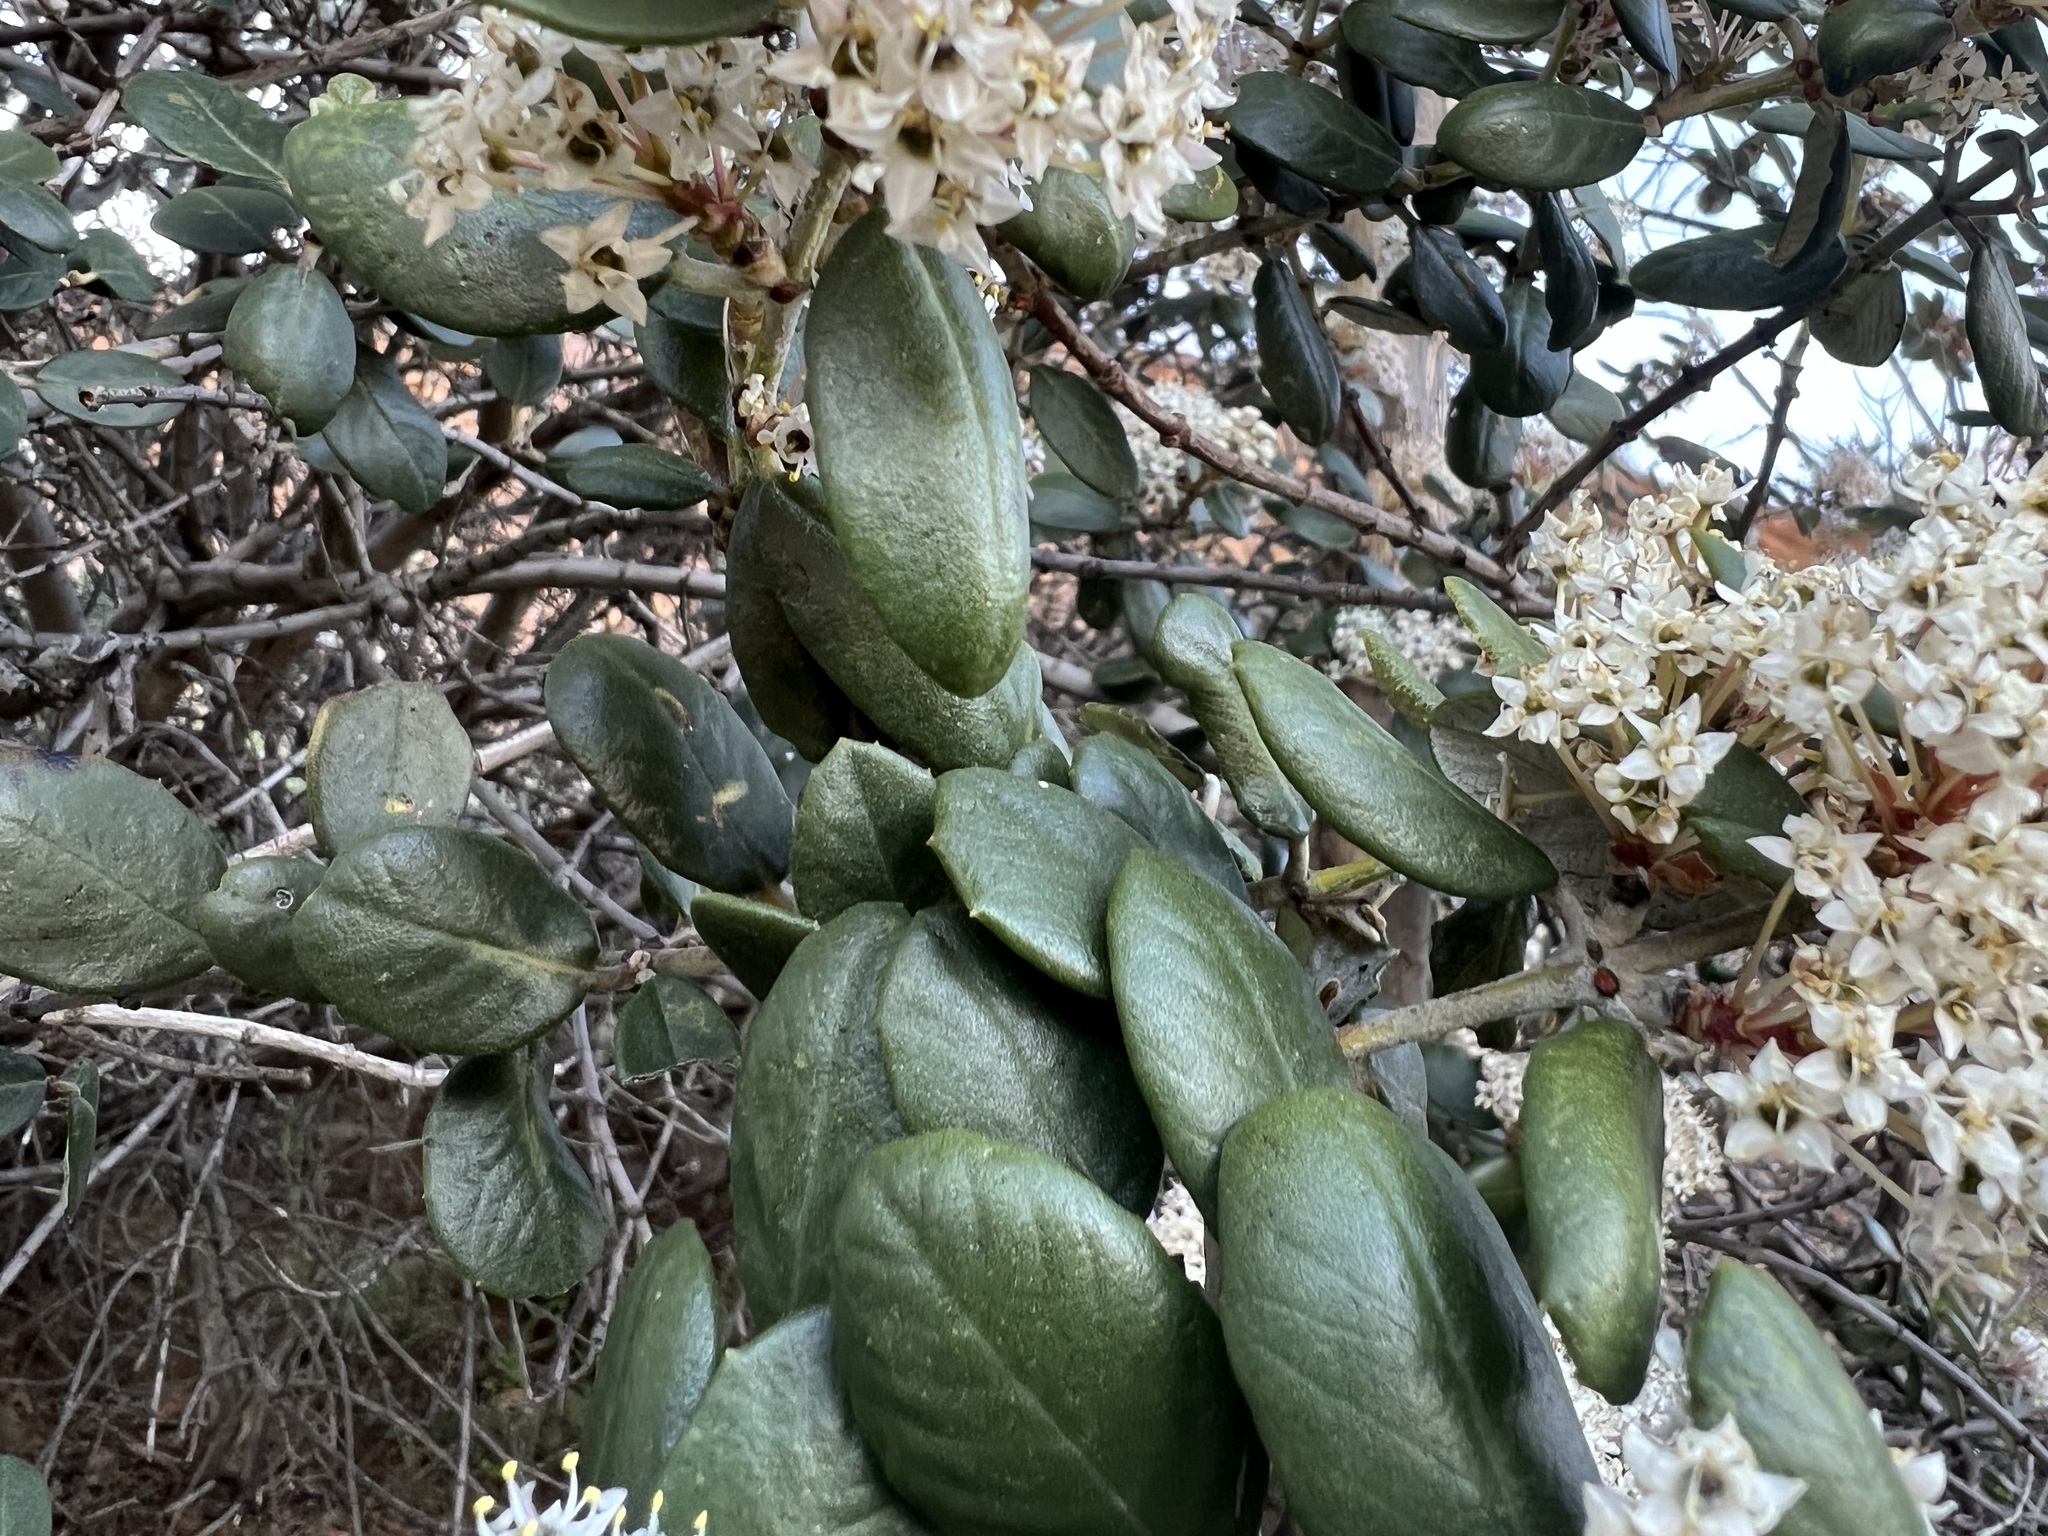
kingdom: Plantae
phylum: Tracheophyta
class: Magnoliopsida
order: Rosales
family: Rhamnaceae
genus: Ceanothus
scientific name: Ceanothus crassifolius
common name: Hoaryleaf ceanothus
